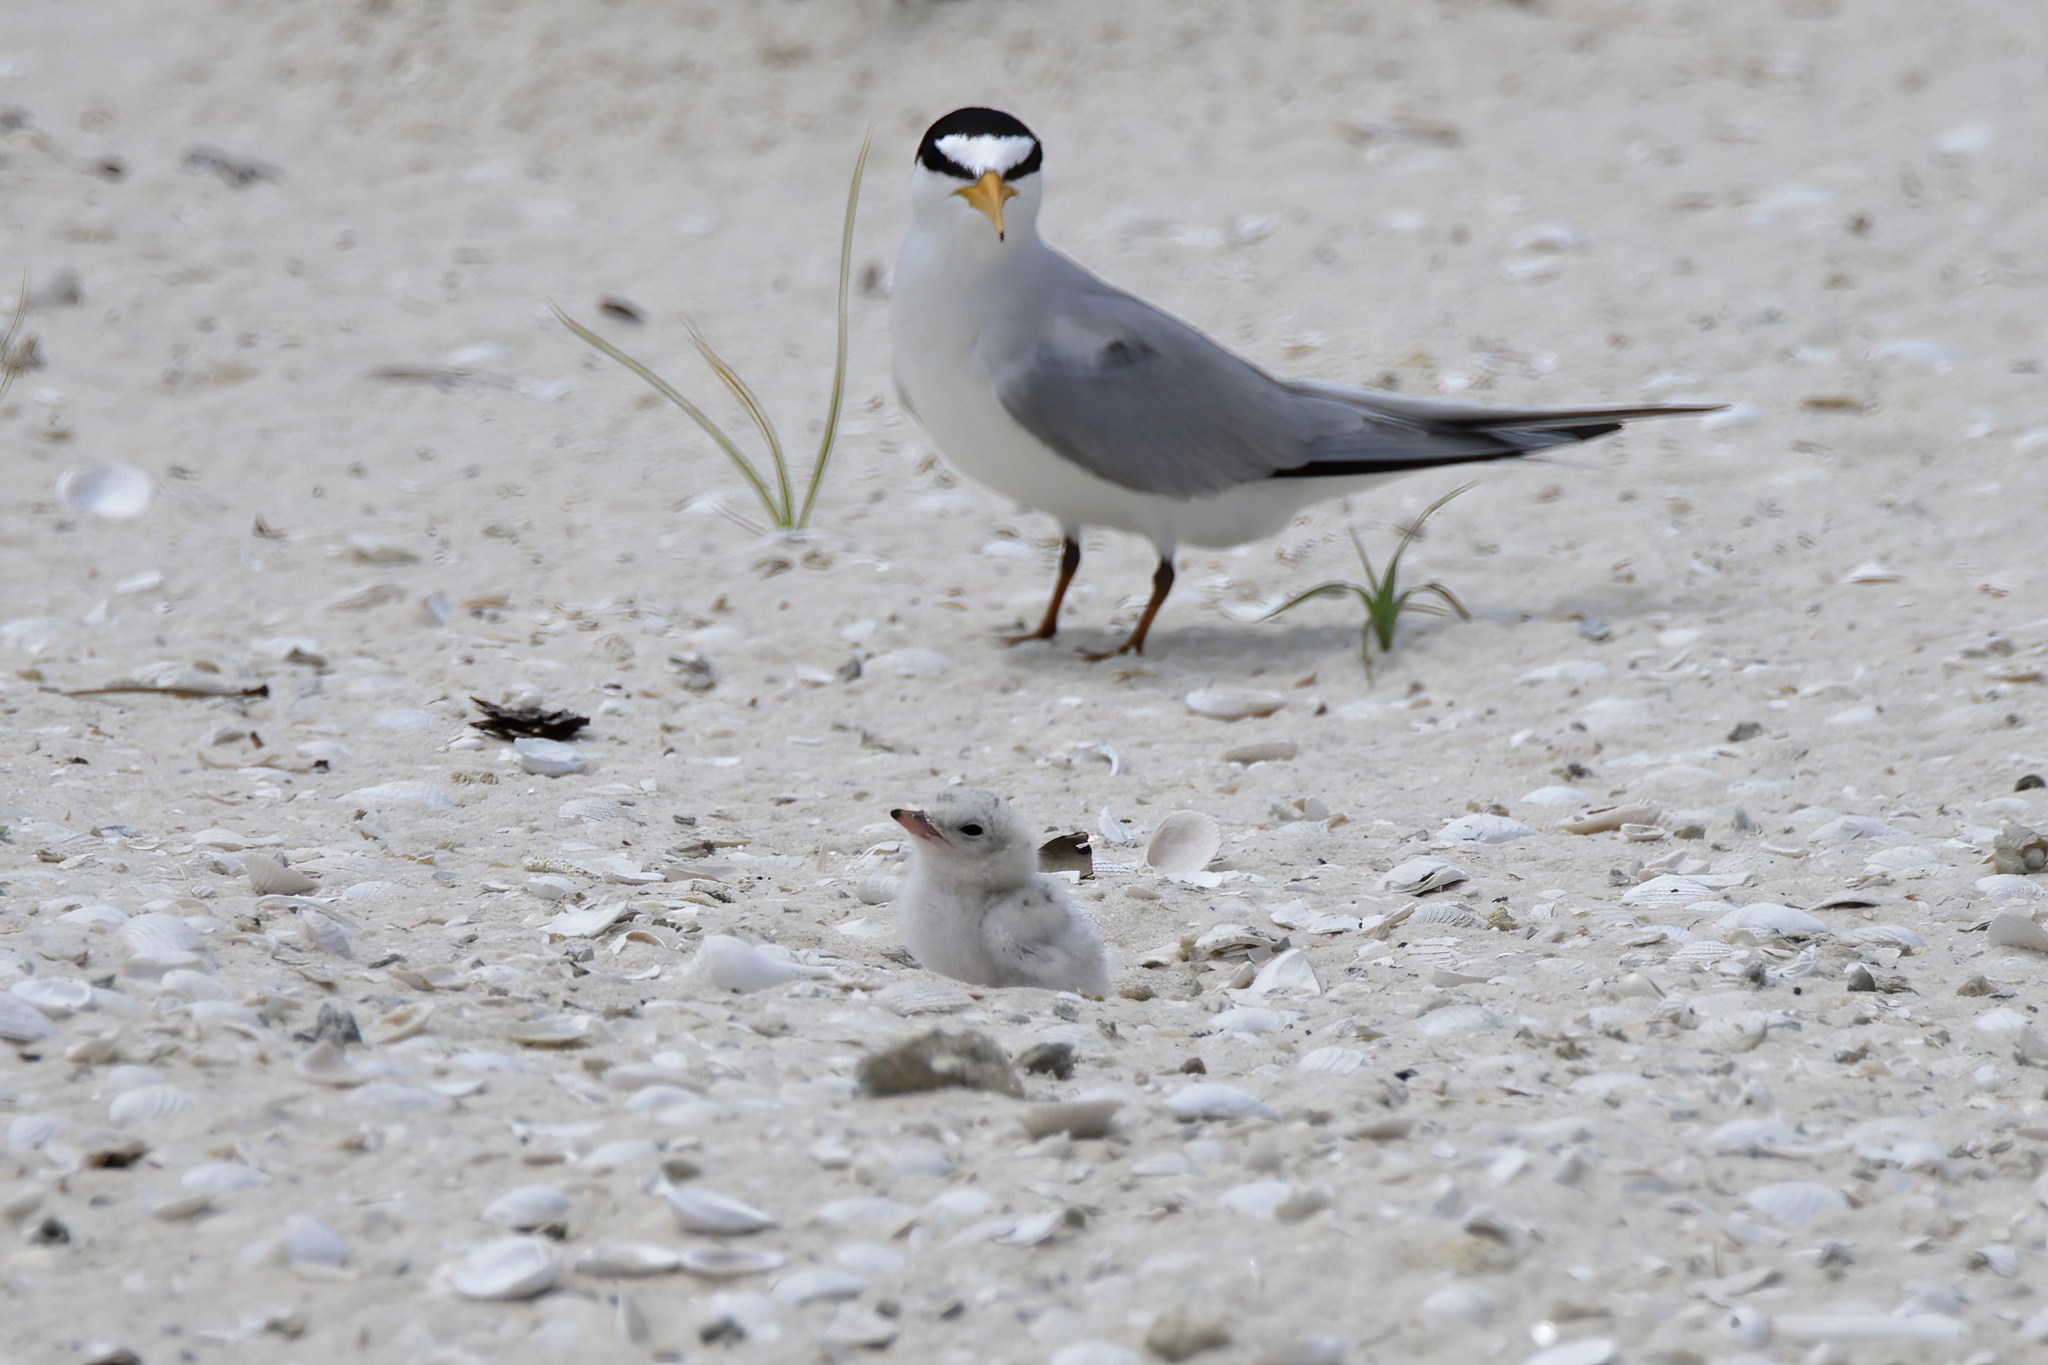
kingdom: Animalia
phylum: Chordata
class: Aves
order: Charadriiformes
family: Laridae
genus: Sternula
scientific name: Sternula antillarum
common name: Least tern
